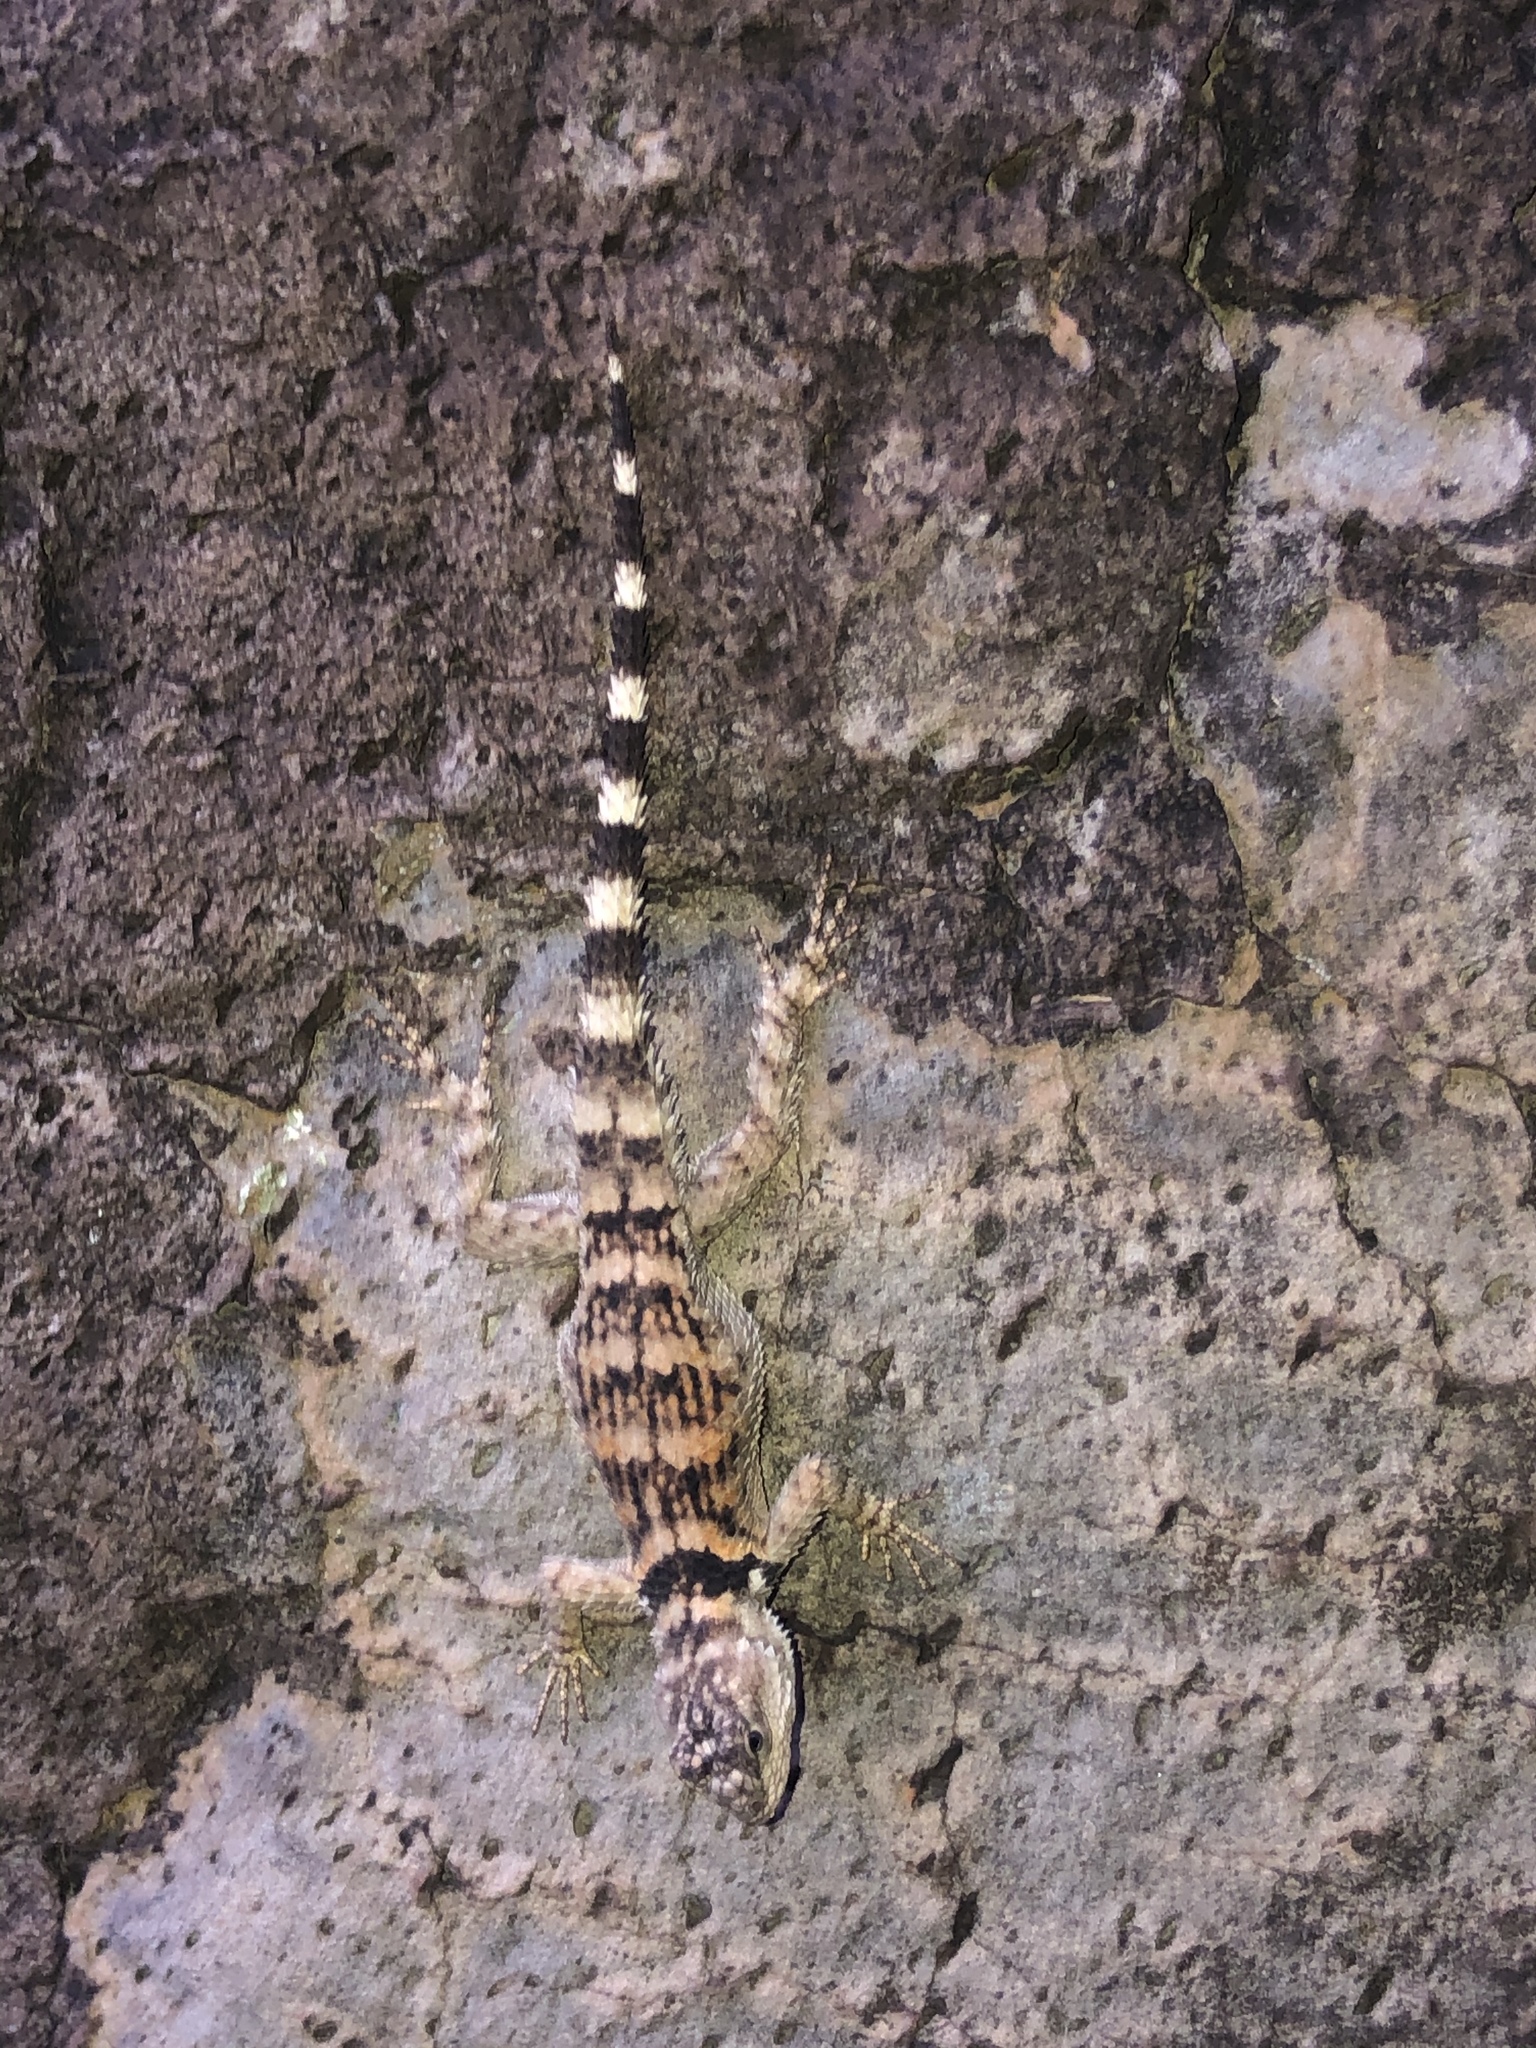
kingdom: Animalia
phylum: Chordata
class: Squamata
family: Phrynosomatidae
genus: Sceloporus
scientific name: Sceloporus poinsettii
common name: Crevice spiny lizard
